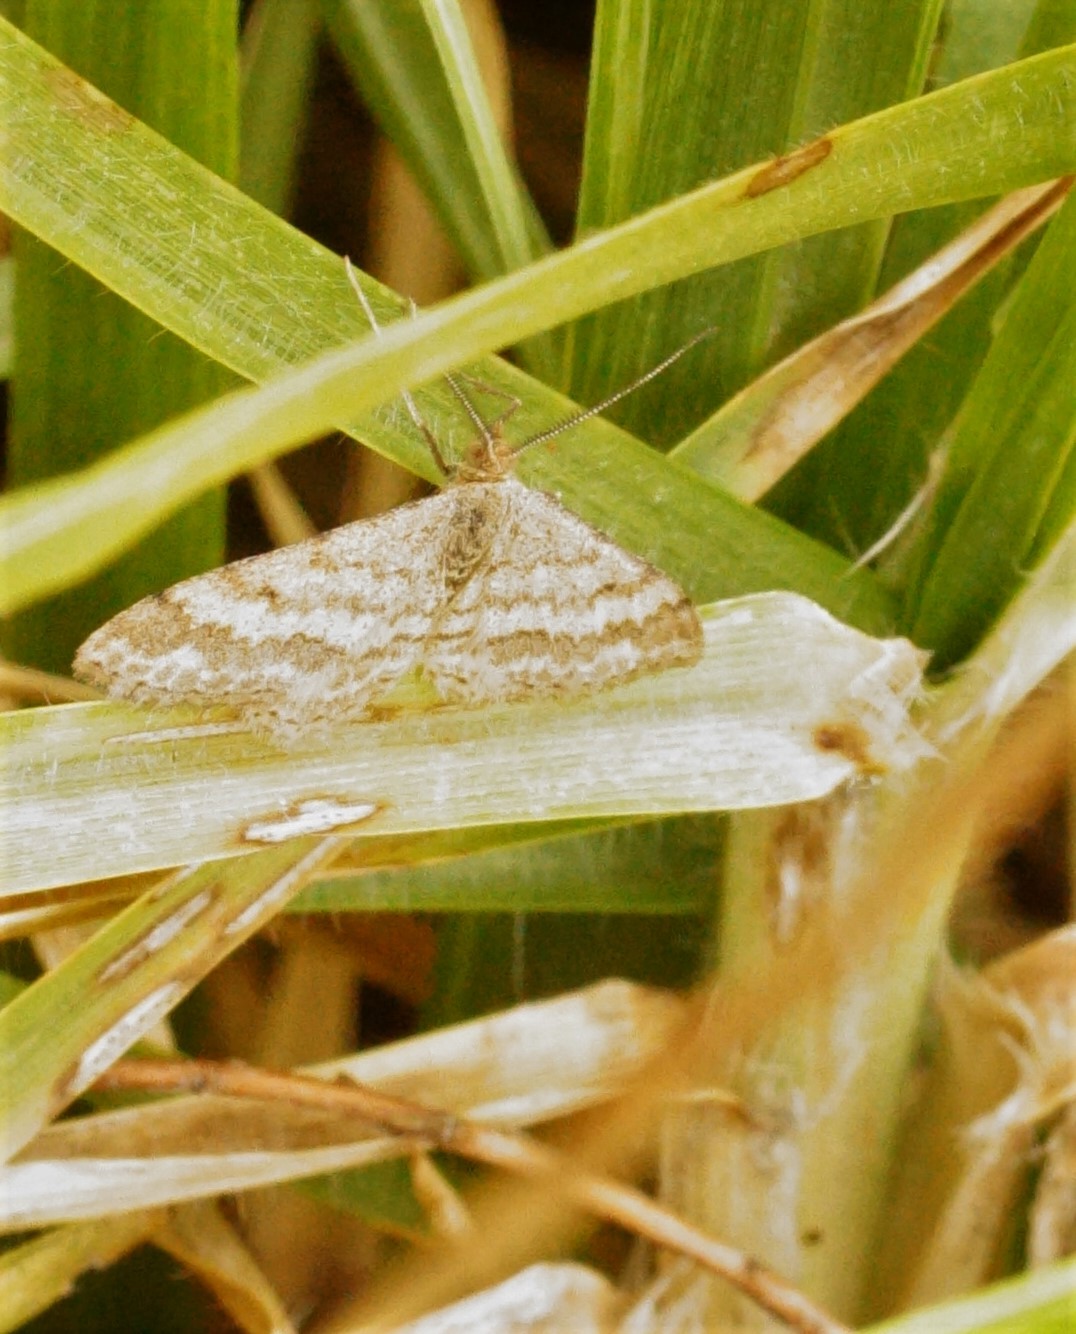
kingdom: Animalia
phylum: Arthropoda
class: Insecta
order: Lepidoptera
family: Geometridae
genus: Scopula
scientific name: Scopula rubraria
